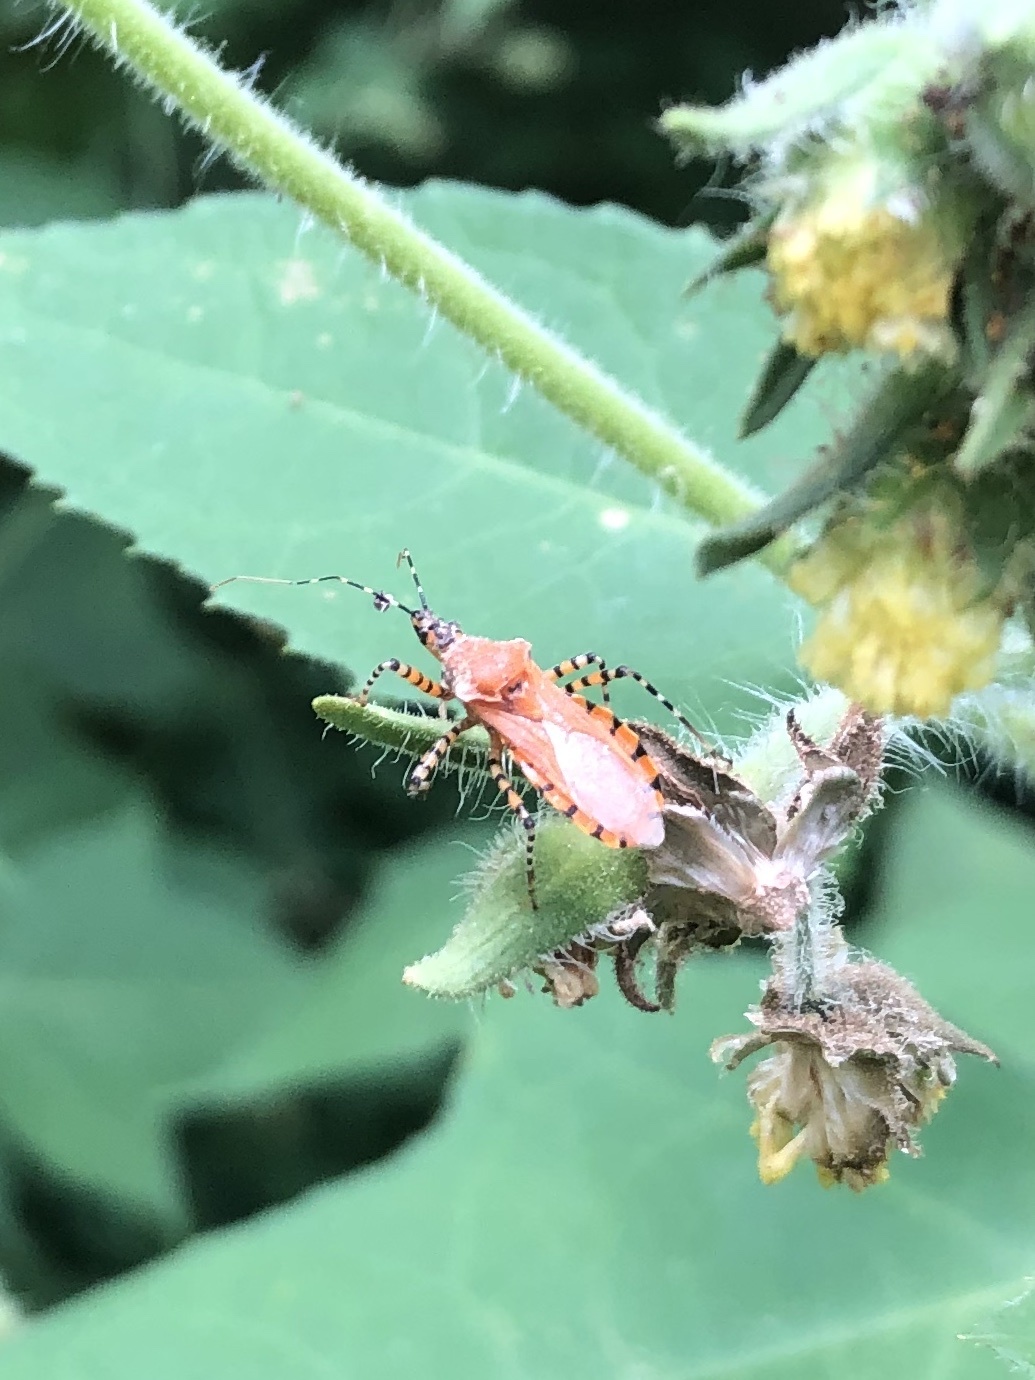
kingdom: Animalia
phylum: Arthropoda
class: Insecta
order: Hemiptera
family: Reduviidae
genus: Pselliopus
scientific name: Pselliopus barberi
